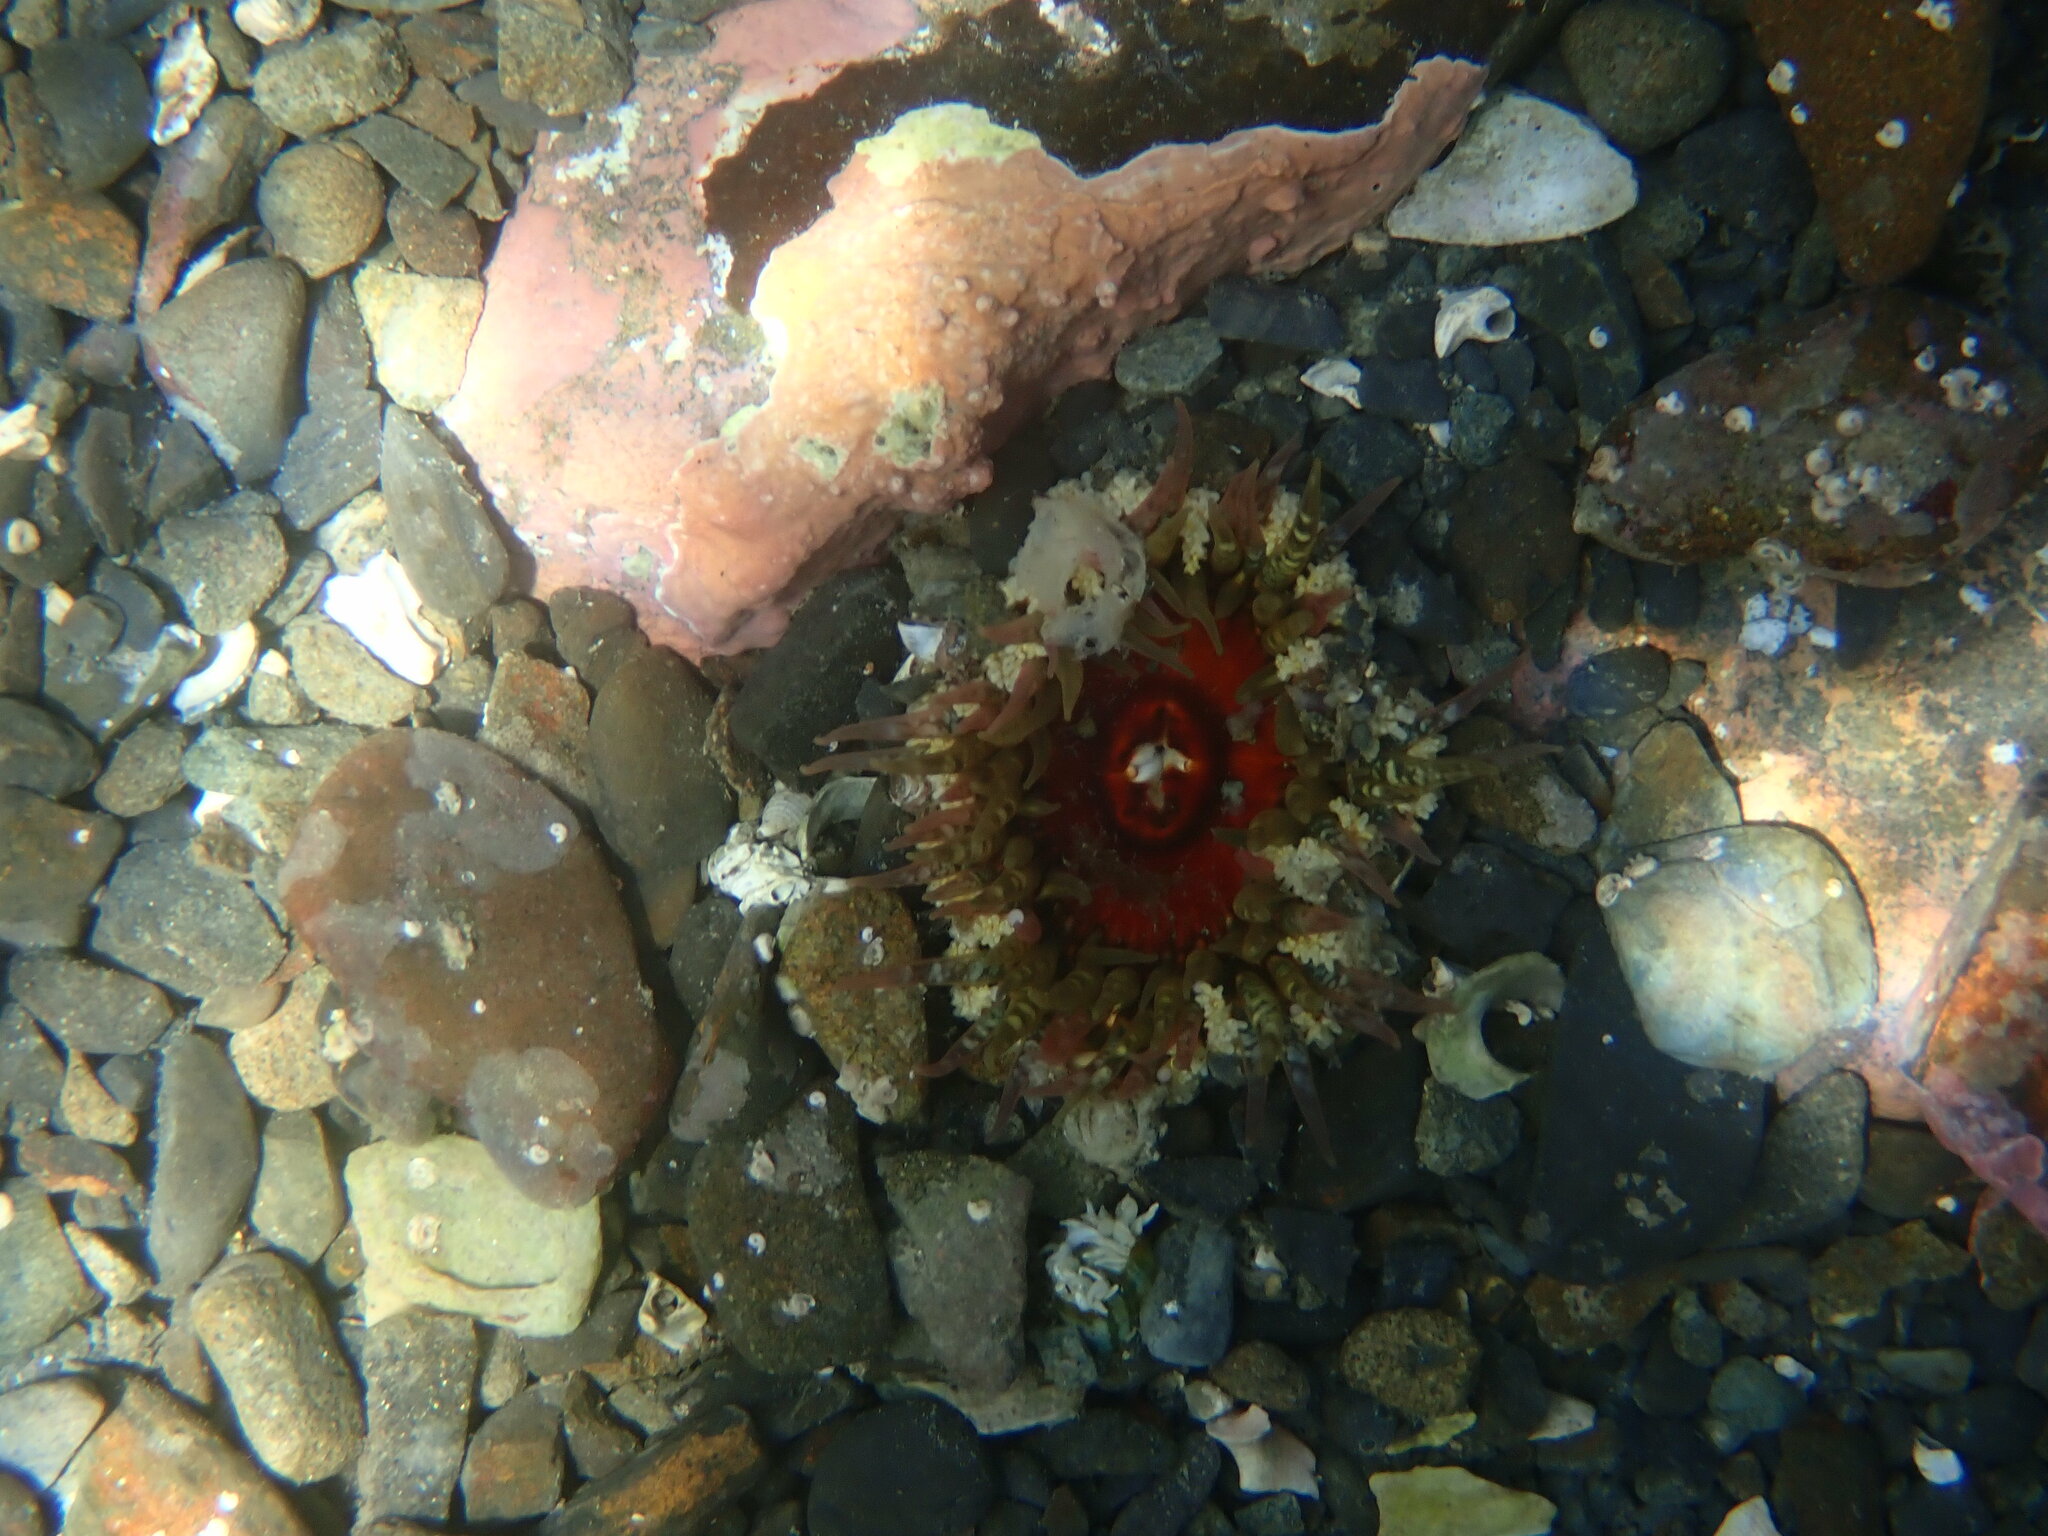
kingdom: Animalia
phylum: Cnidaria
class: Anthozoa
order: Actiniaria
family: Actiniidae
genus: Oulactis
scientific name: Oulactis muscosa
